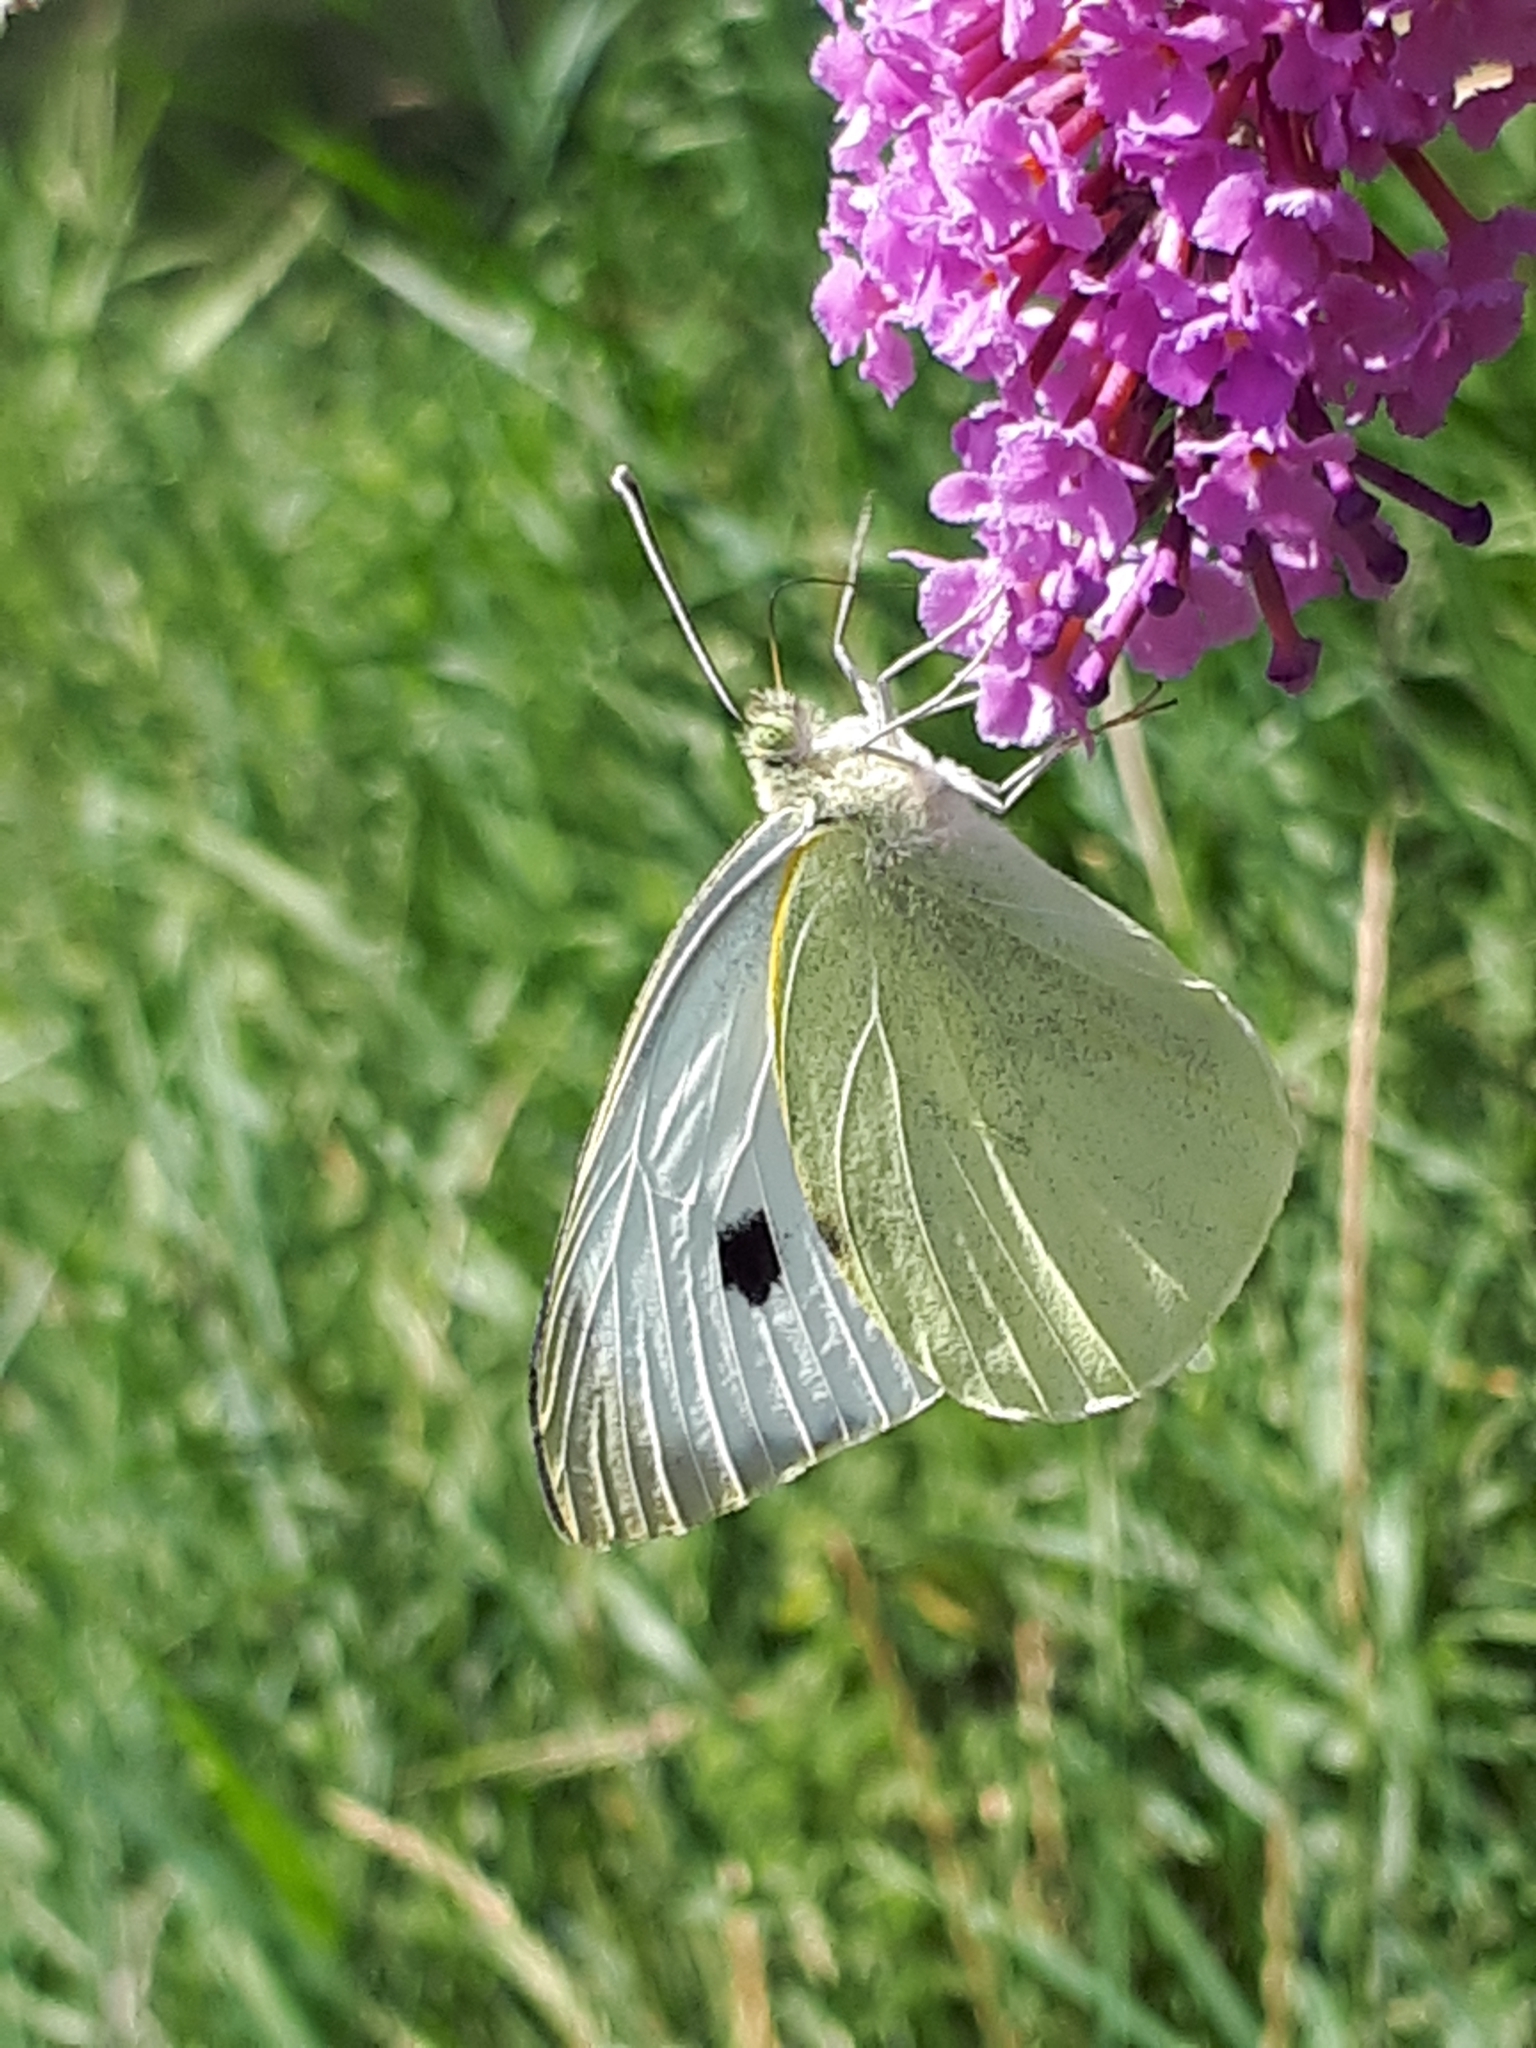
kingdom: Animalia
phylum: Arthropoda
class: Insecta
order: Lepidoptera
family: Pieridae
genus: Pieris
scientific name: Pieris brassicae
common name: Large white
